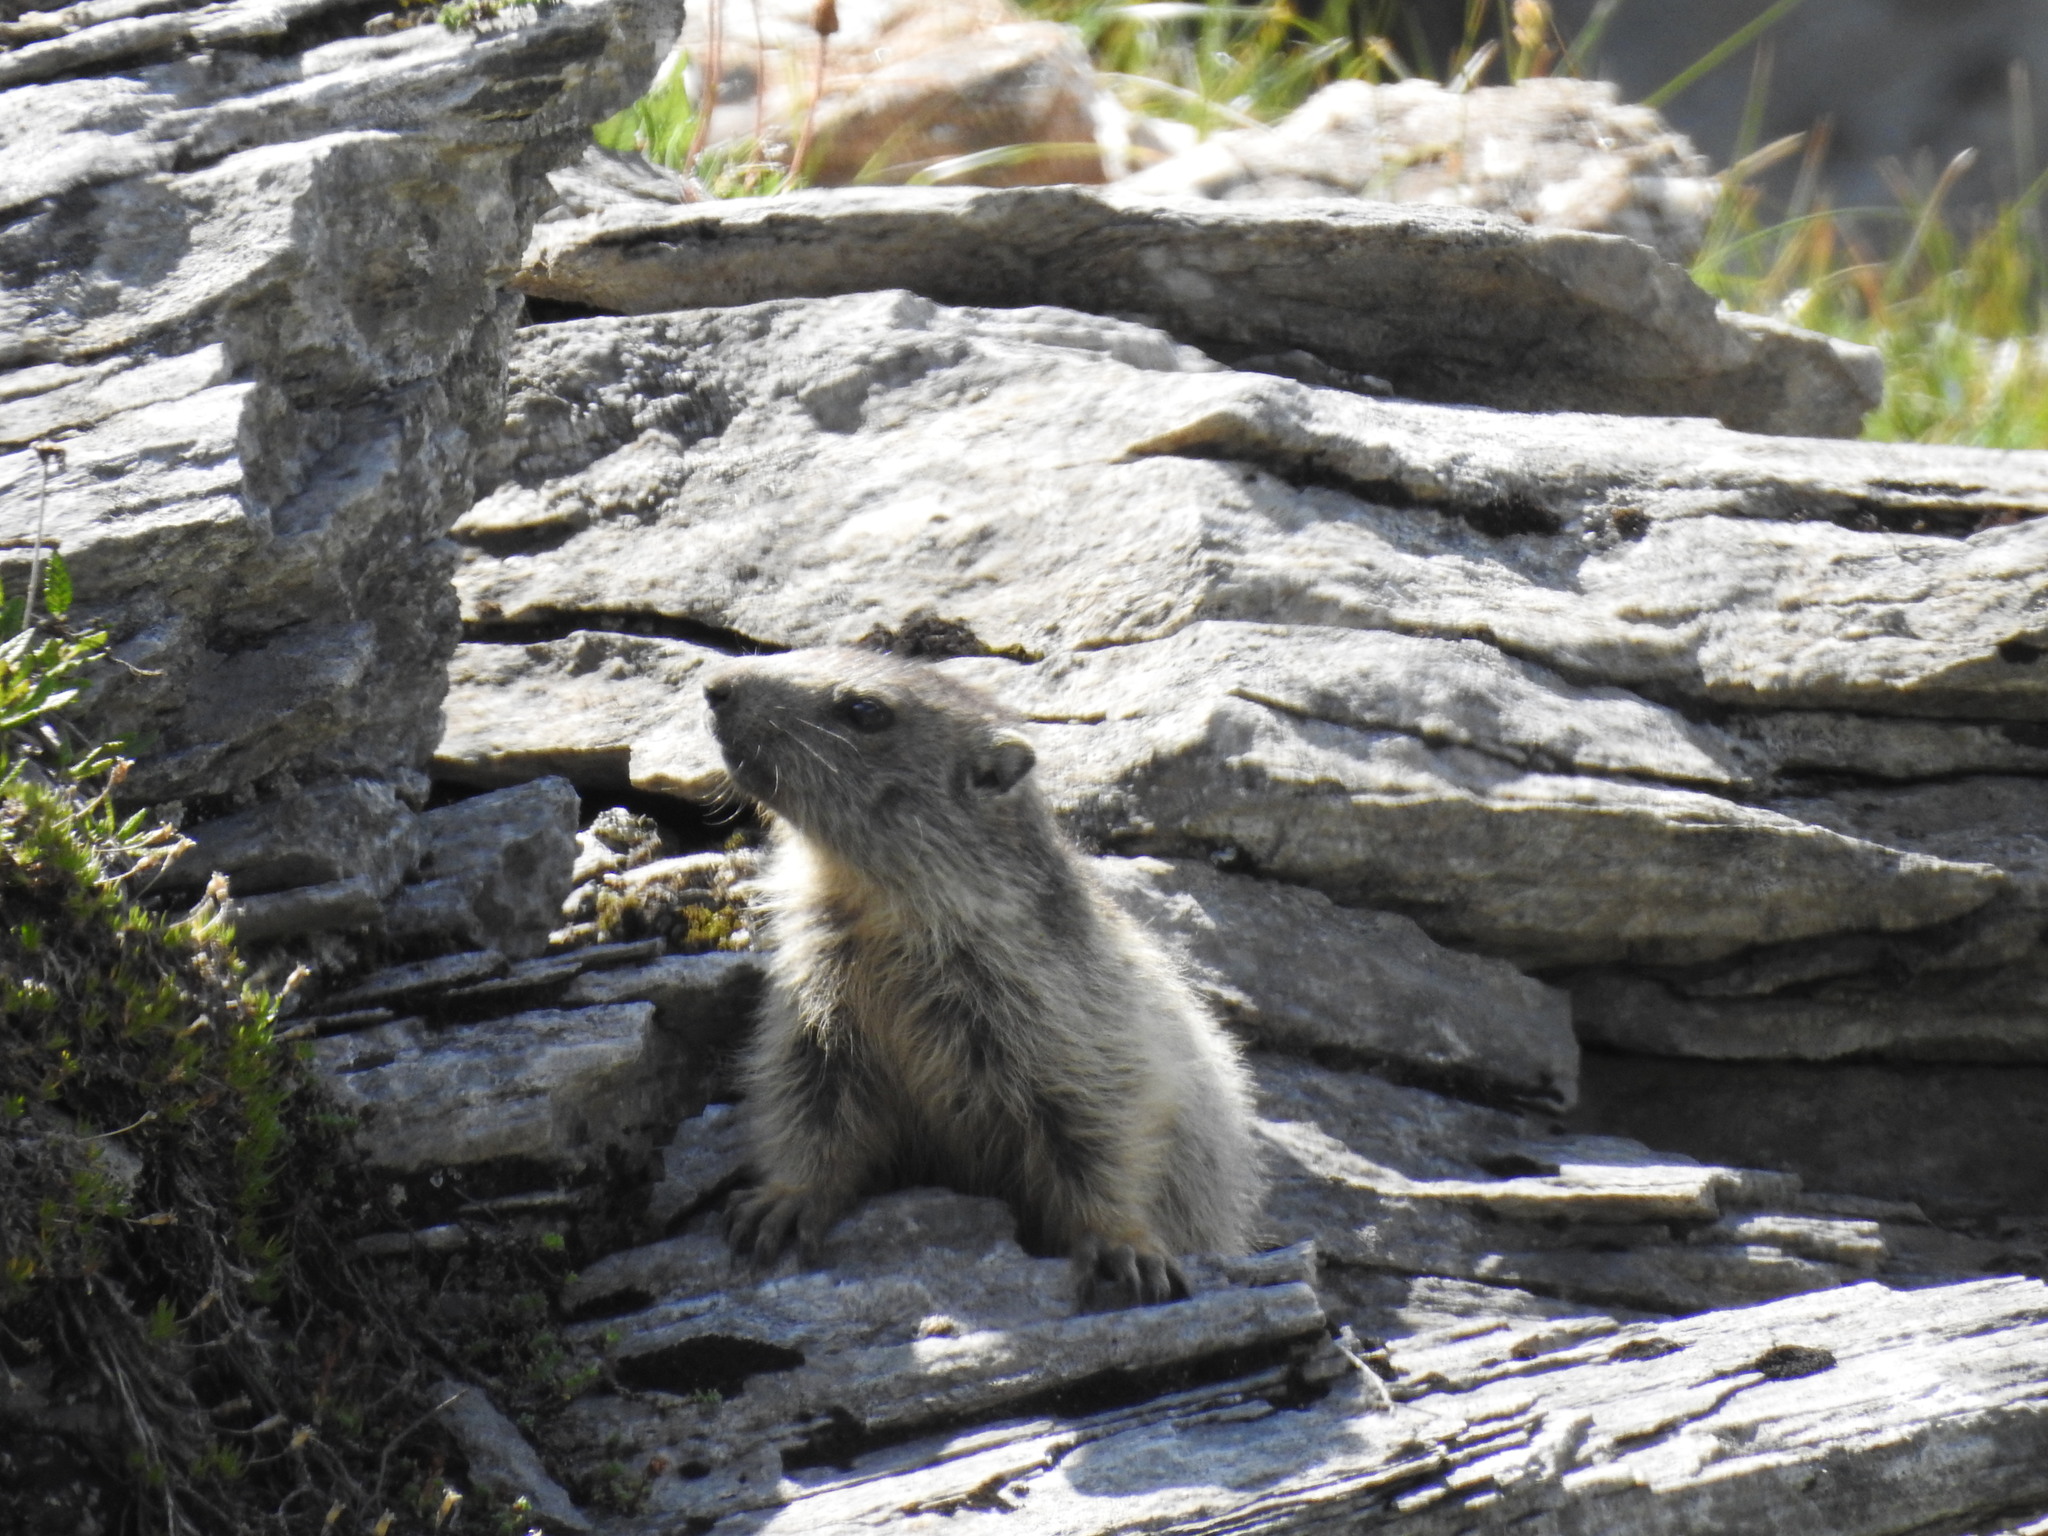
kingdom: Animalia
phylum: Chordata
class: Mammalia
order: Rodentia
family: Sciuridae
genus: Marmota
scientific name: Marmota marmota
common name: Alpine marmot
